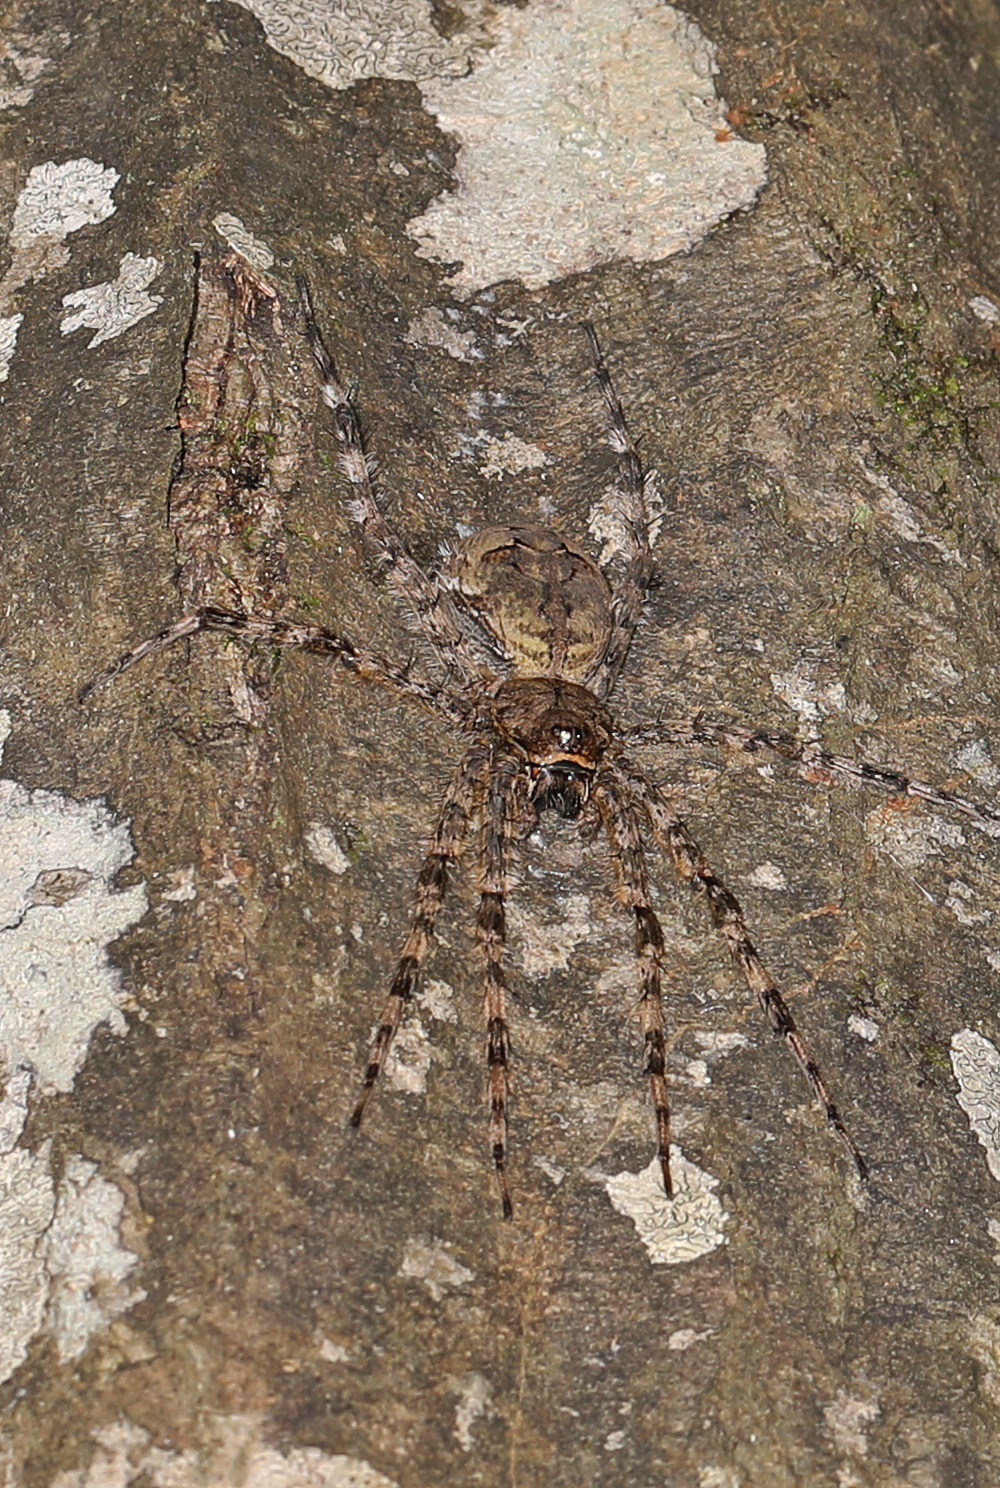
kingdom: Animalia
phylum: Arthropoda
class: Arachnida
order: Araneae
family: Pisauridae
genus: Dolomedes
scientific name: Dolomedes albineus
